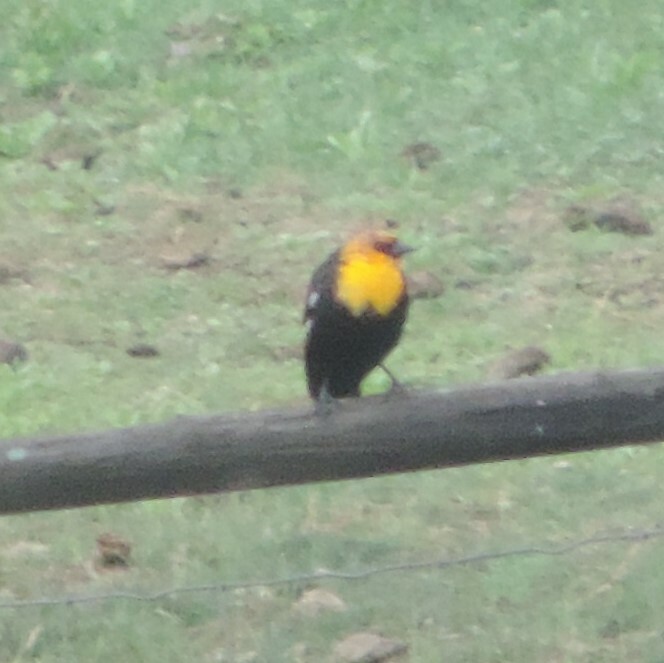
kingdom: Animalia
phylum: Chordata
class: Aves
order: Passeriformes
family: Icteridae
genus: Xanthocephalus
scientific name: Xanthocephalus xanthocephalus
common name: Yellow-headed blackbird
